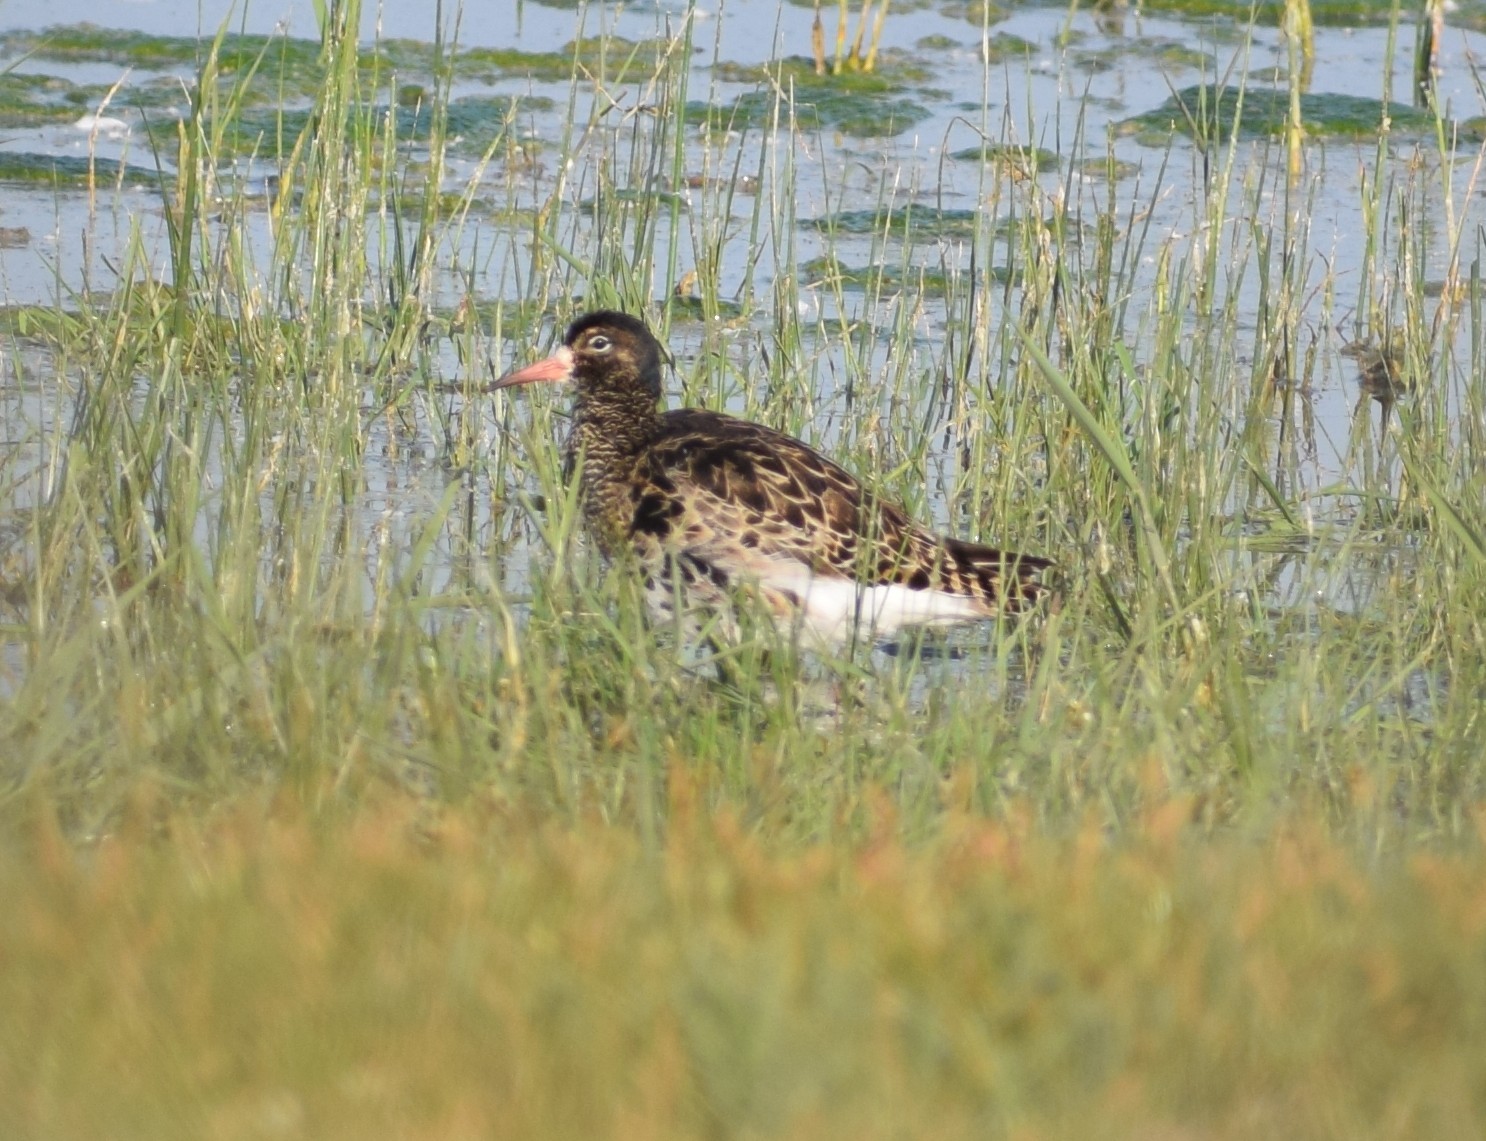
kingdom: Animalia
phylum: Chordata
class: Aves
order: Charadriiformes
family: Scolopacidae
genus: Calidris
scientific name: Calidris pugnax
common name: Ruff
